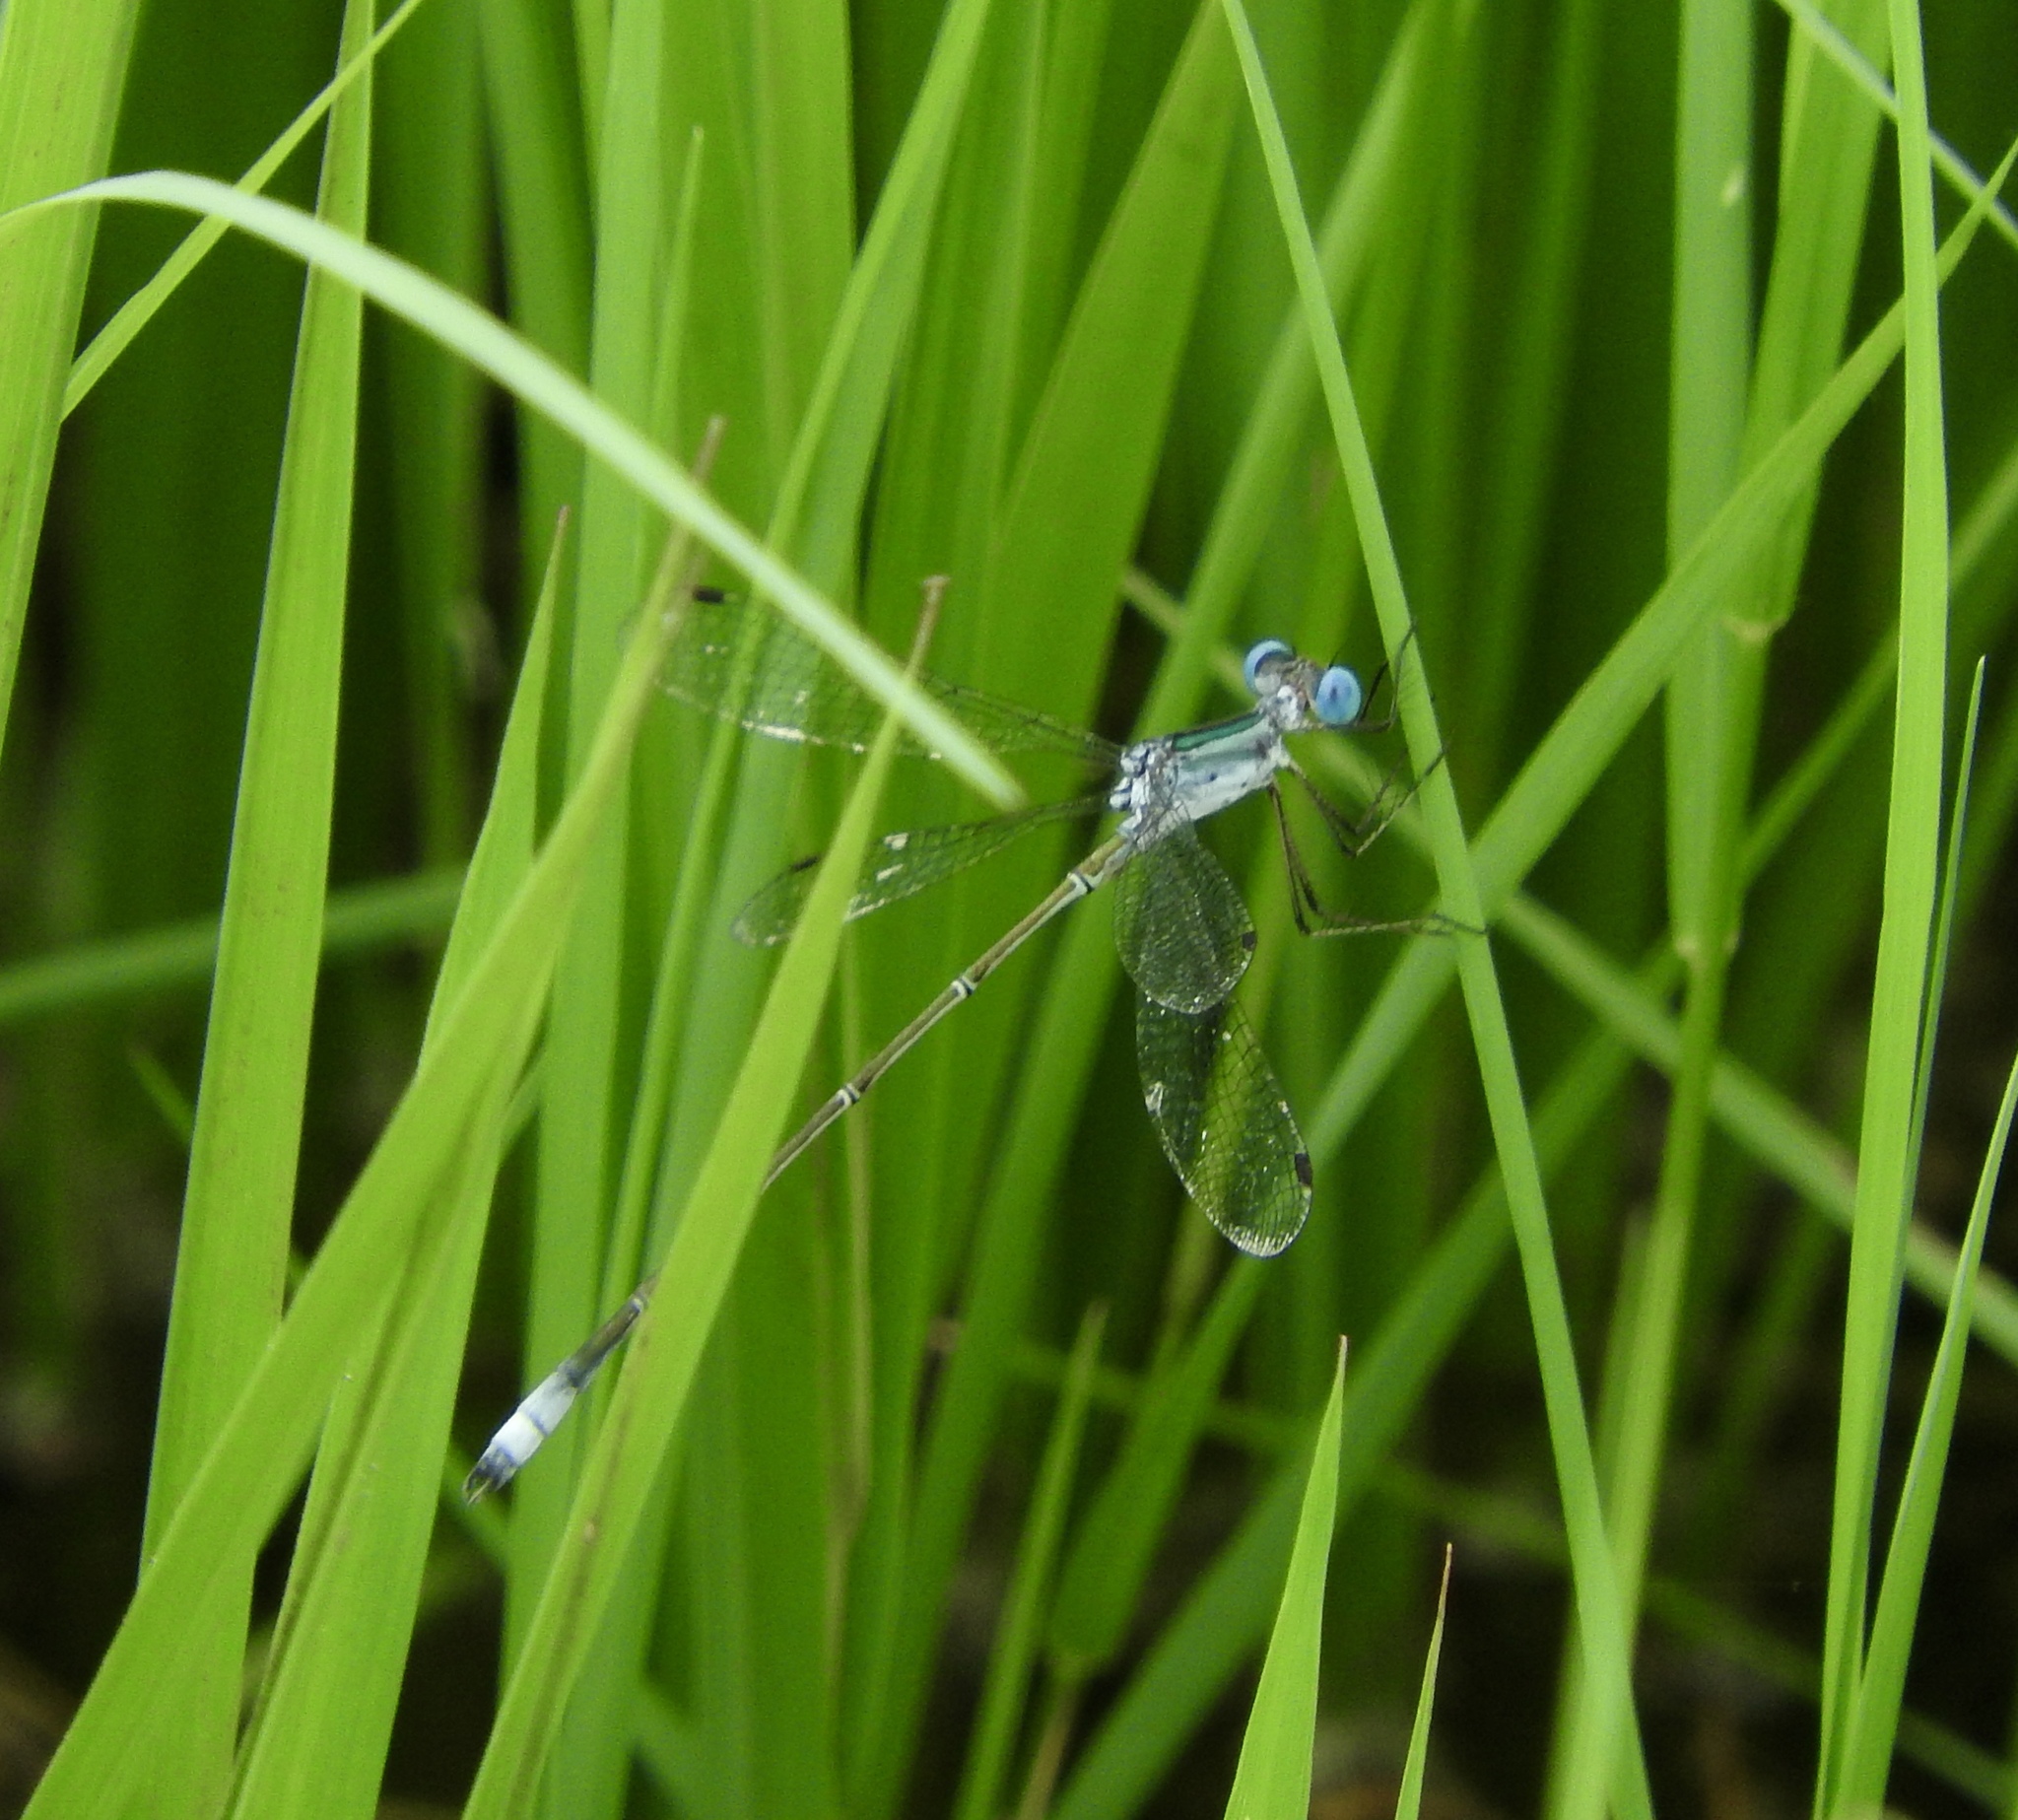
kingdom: Animalia
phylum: Arthropoda
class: Insecta
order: Odonata
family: Lestidae
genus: Lestes
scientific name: Lestes forficula
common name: Rainpool spreadwing
